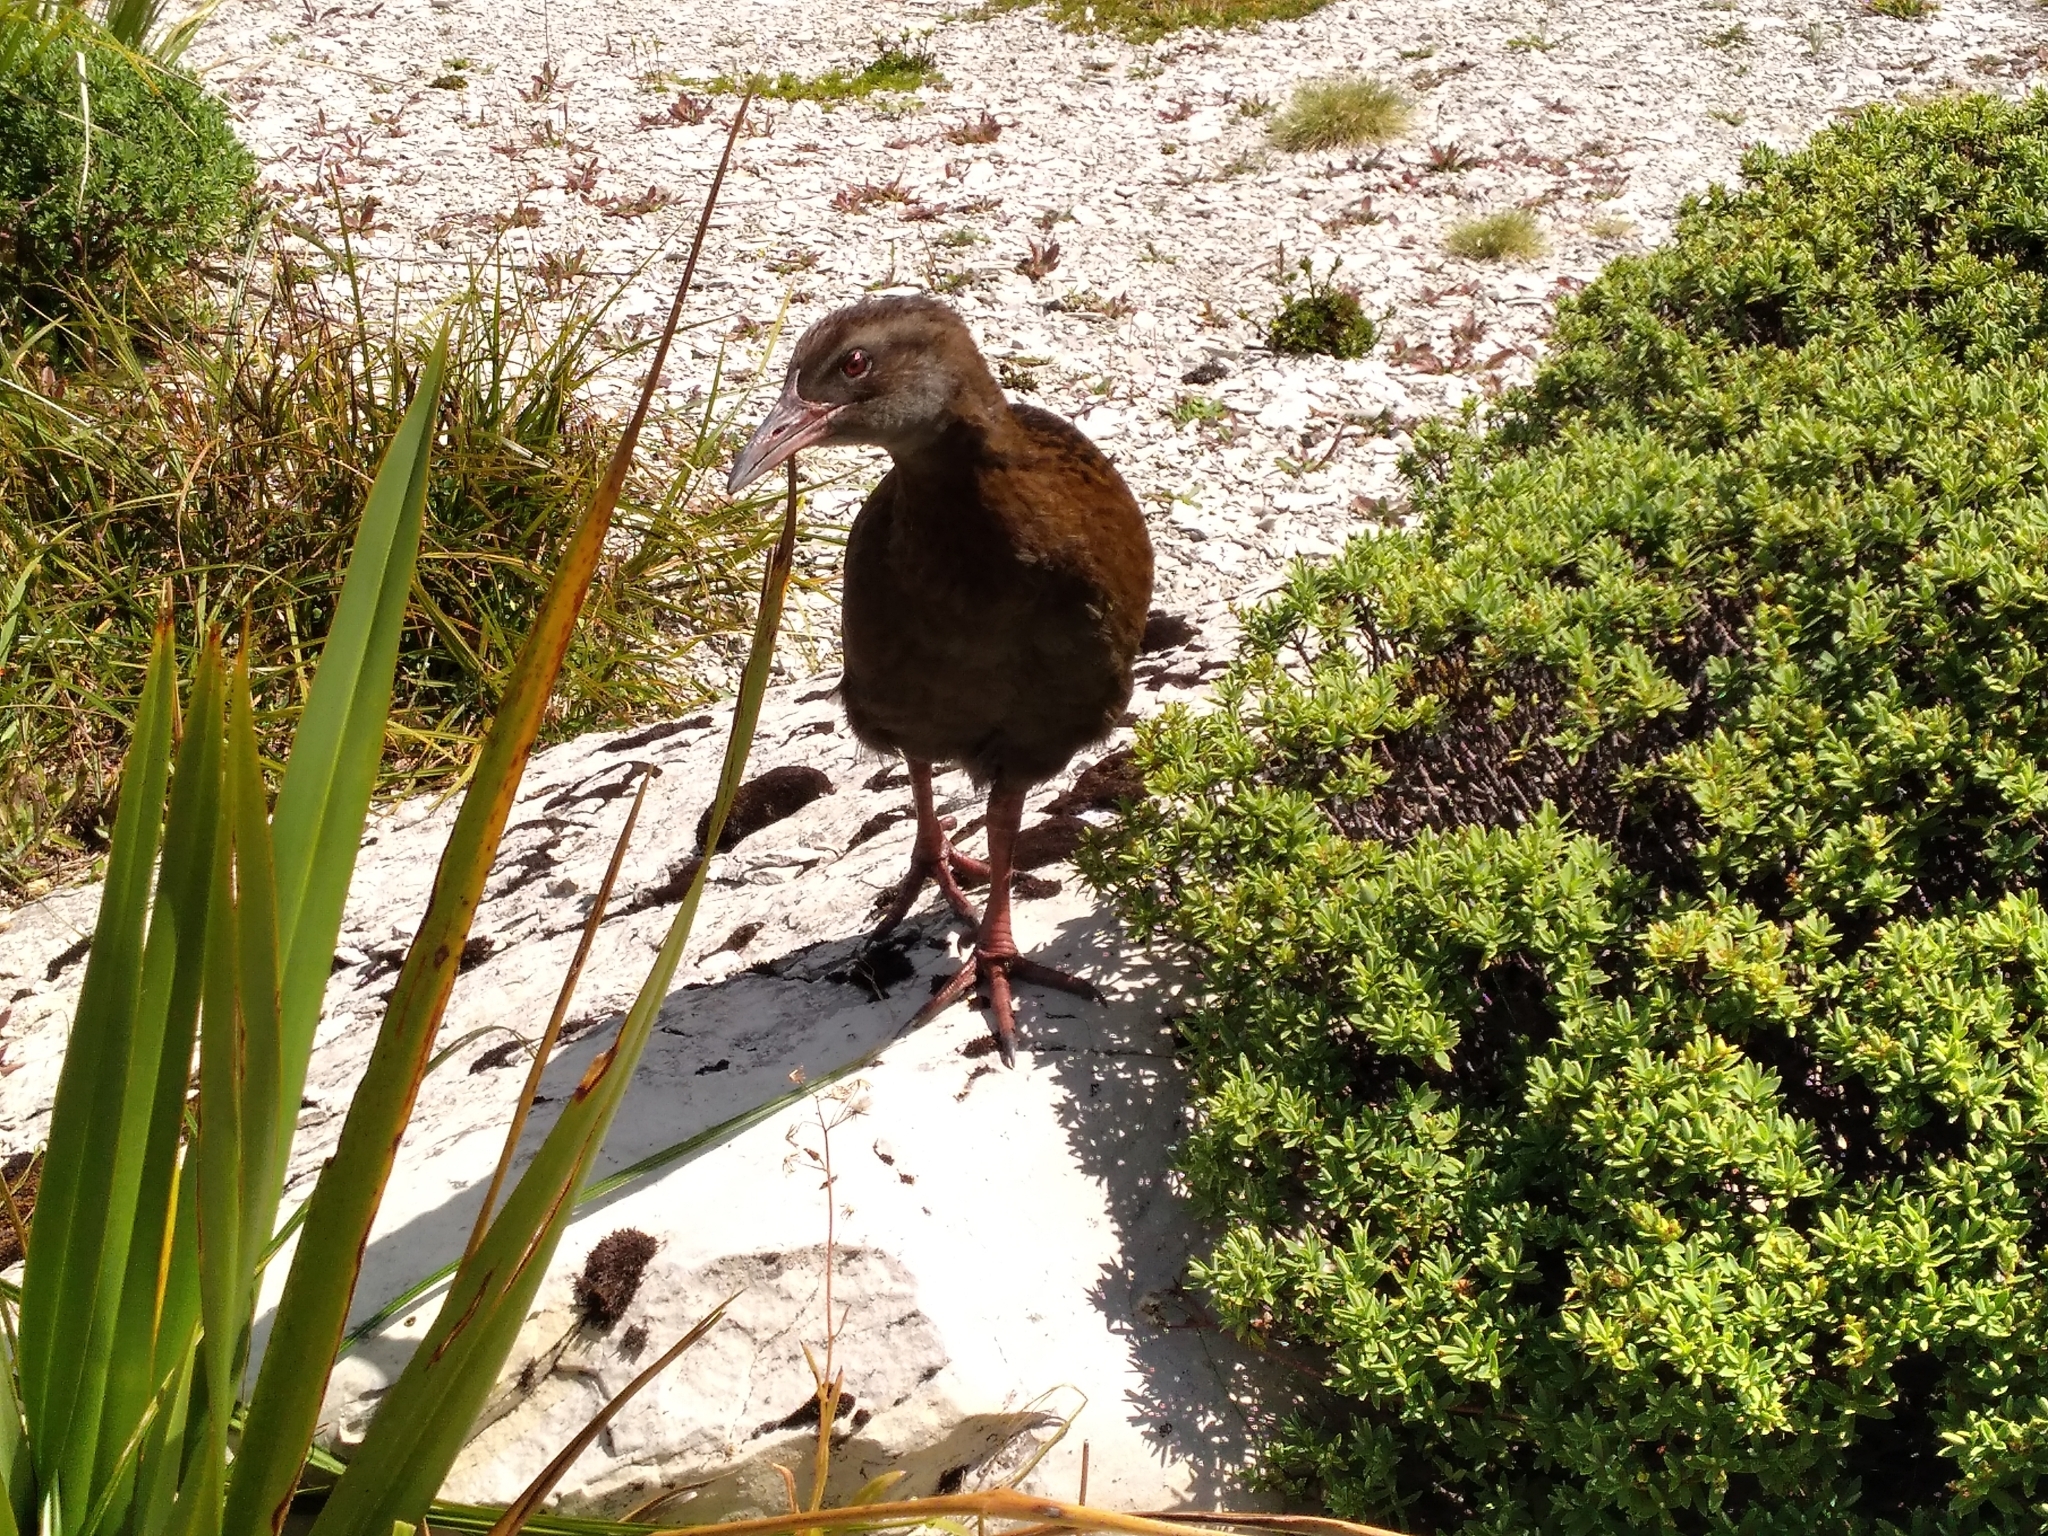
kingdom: Animalia
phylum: Chordata
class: Aves
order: Gruiformes
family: Rallidae
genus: Gallirallus
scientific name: Gallirallus australis
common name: Weka
